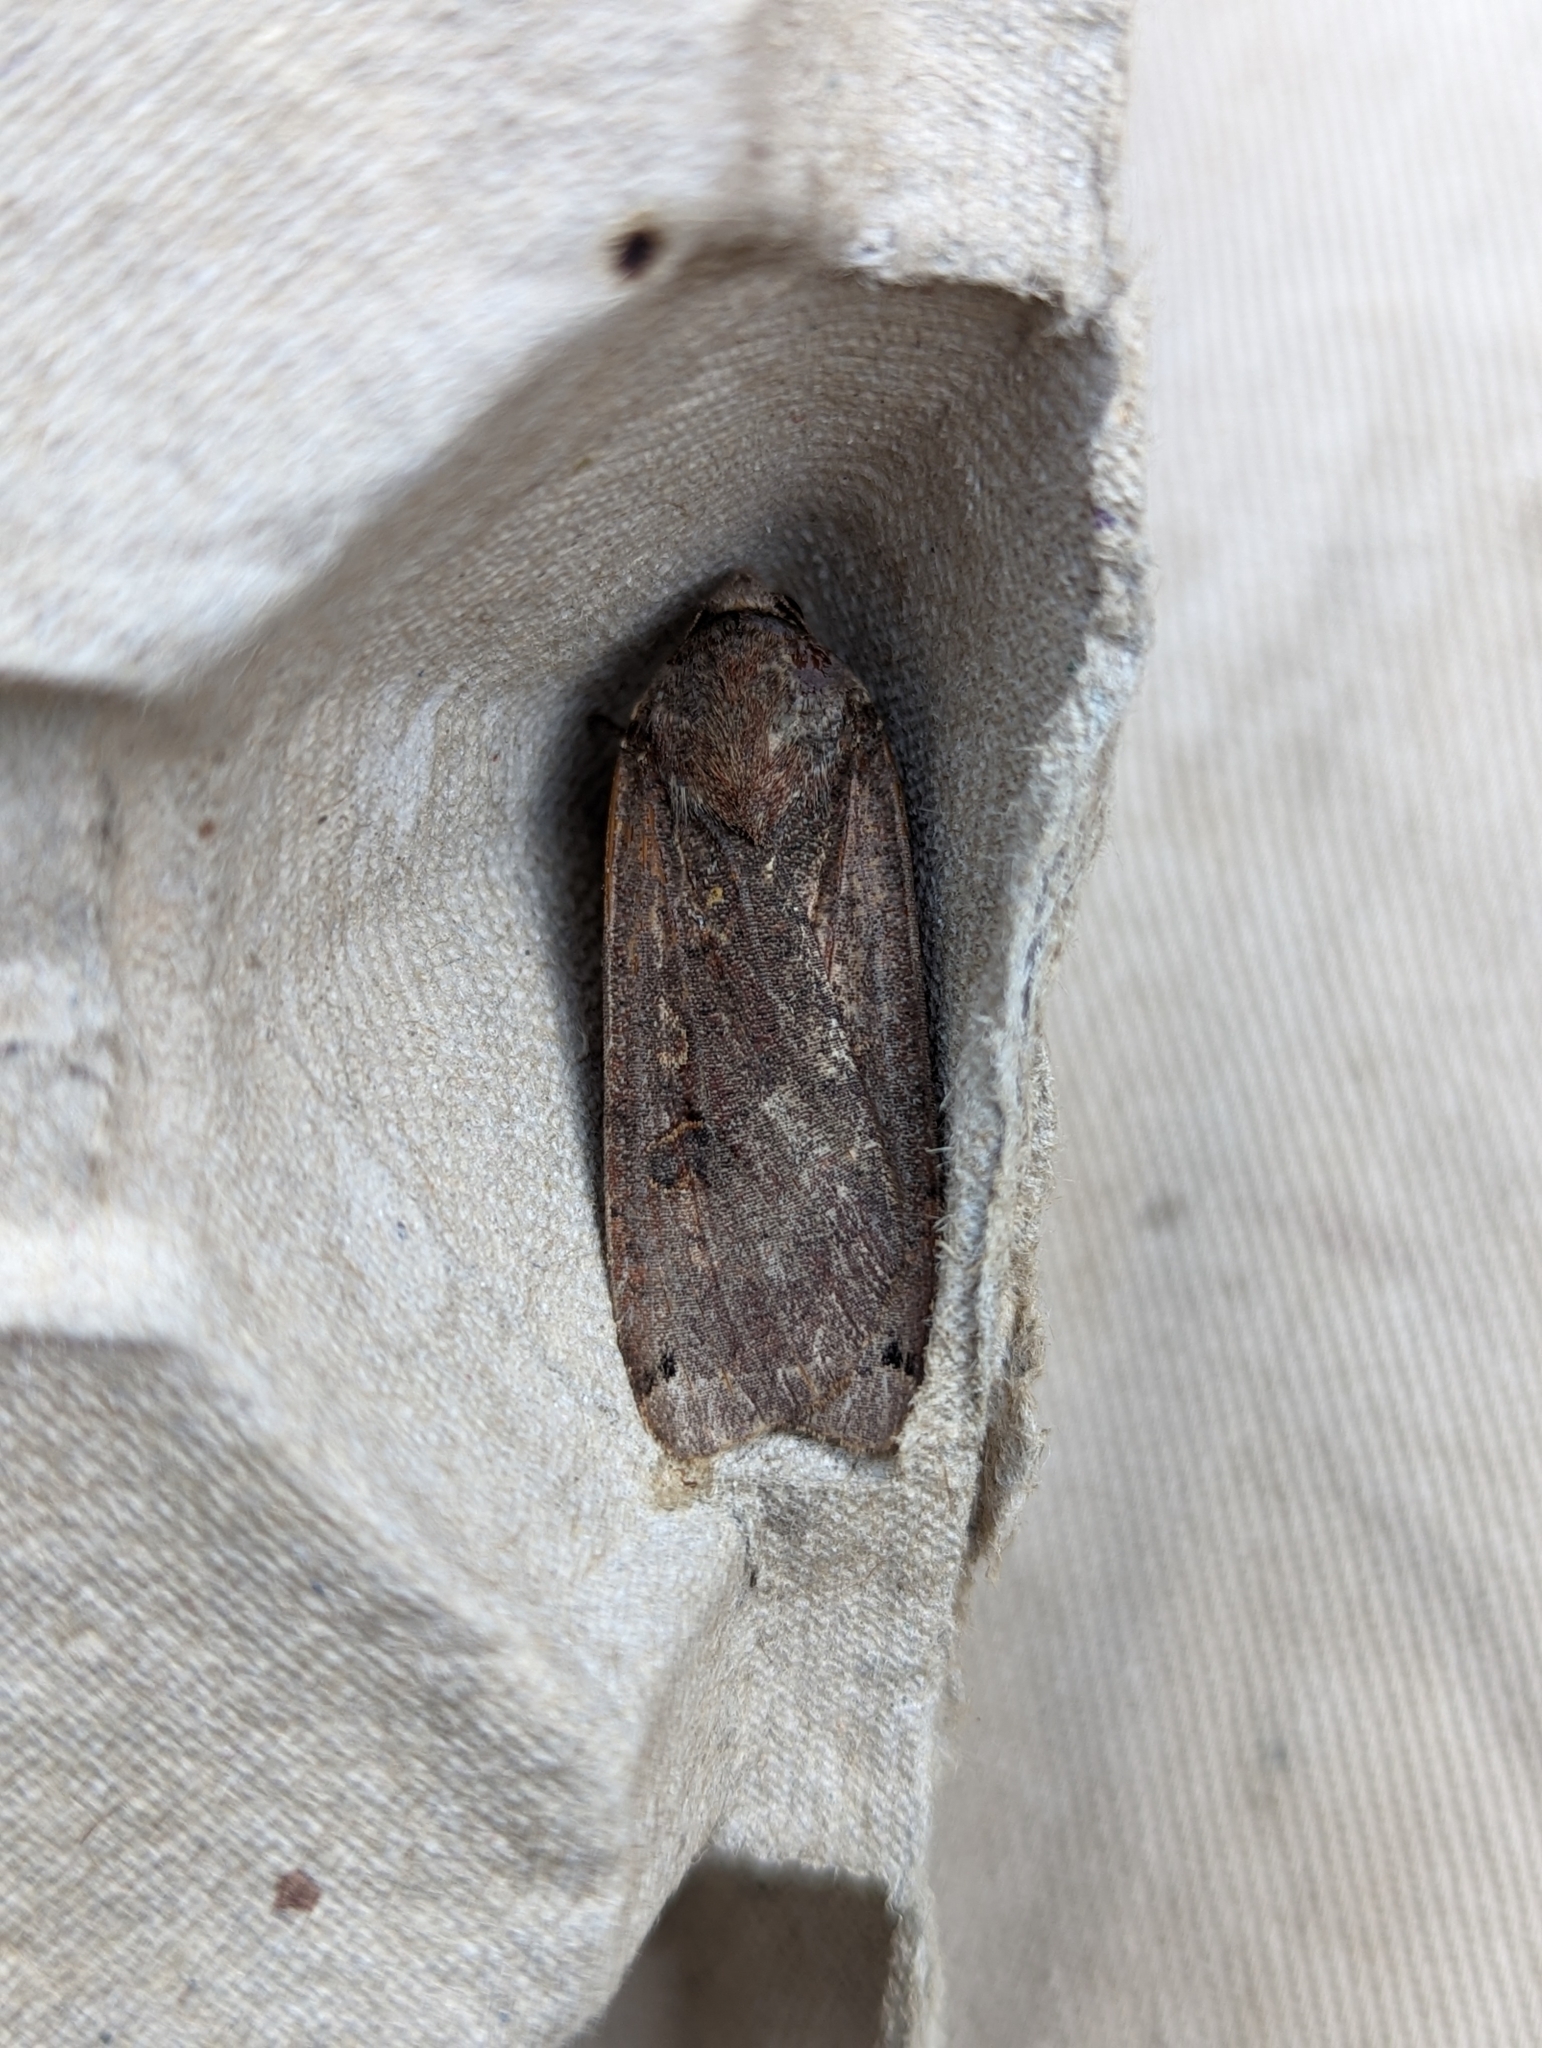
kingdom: Animalia
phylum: Arthropoda
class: Insecta
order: Lepidoptera
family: Noctuidae
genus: Noctua
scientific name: Noctua pronuba
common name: Large yellow underwing
